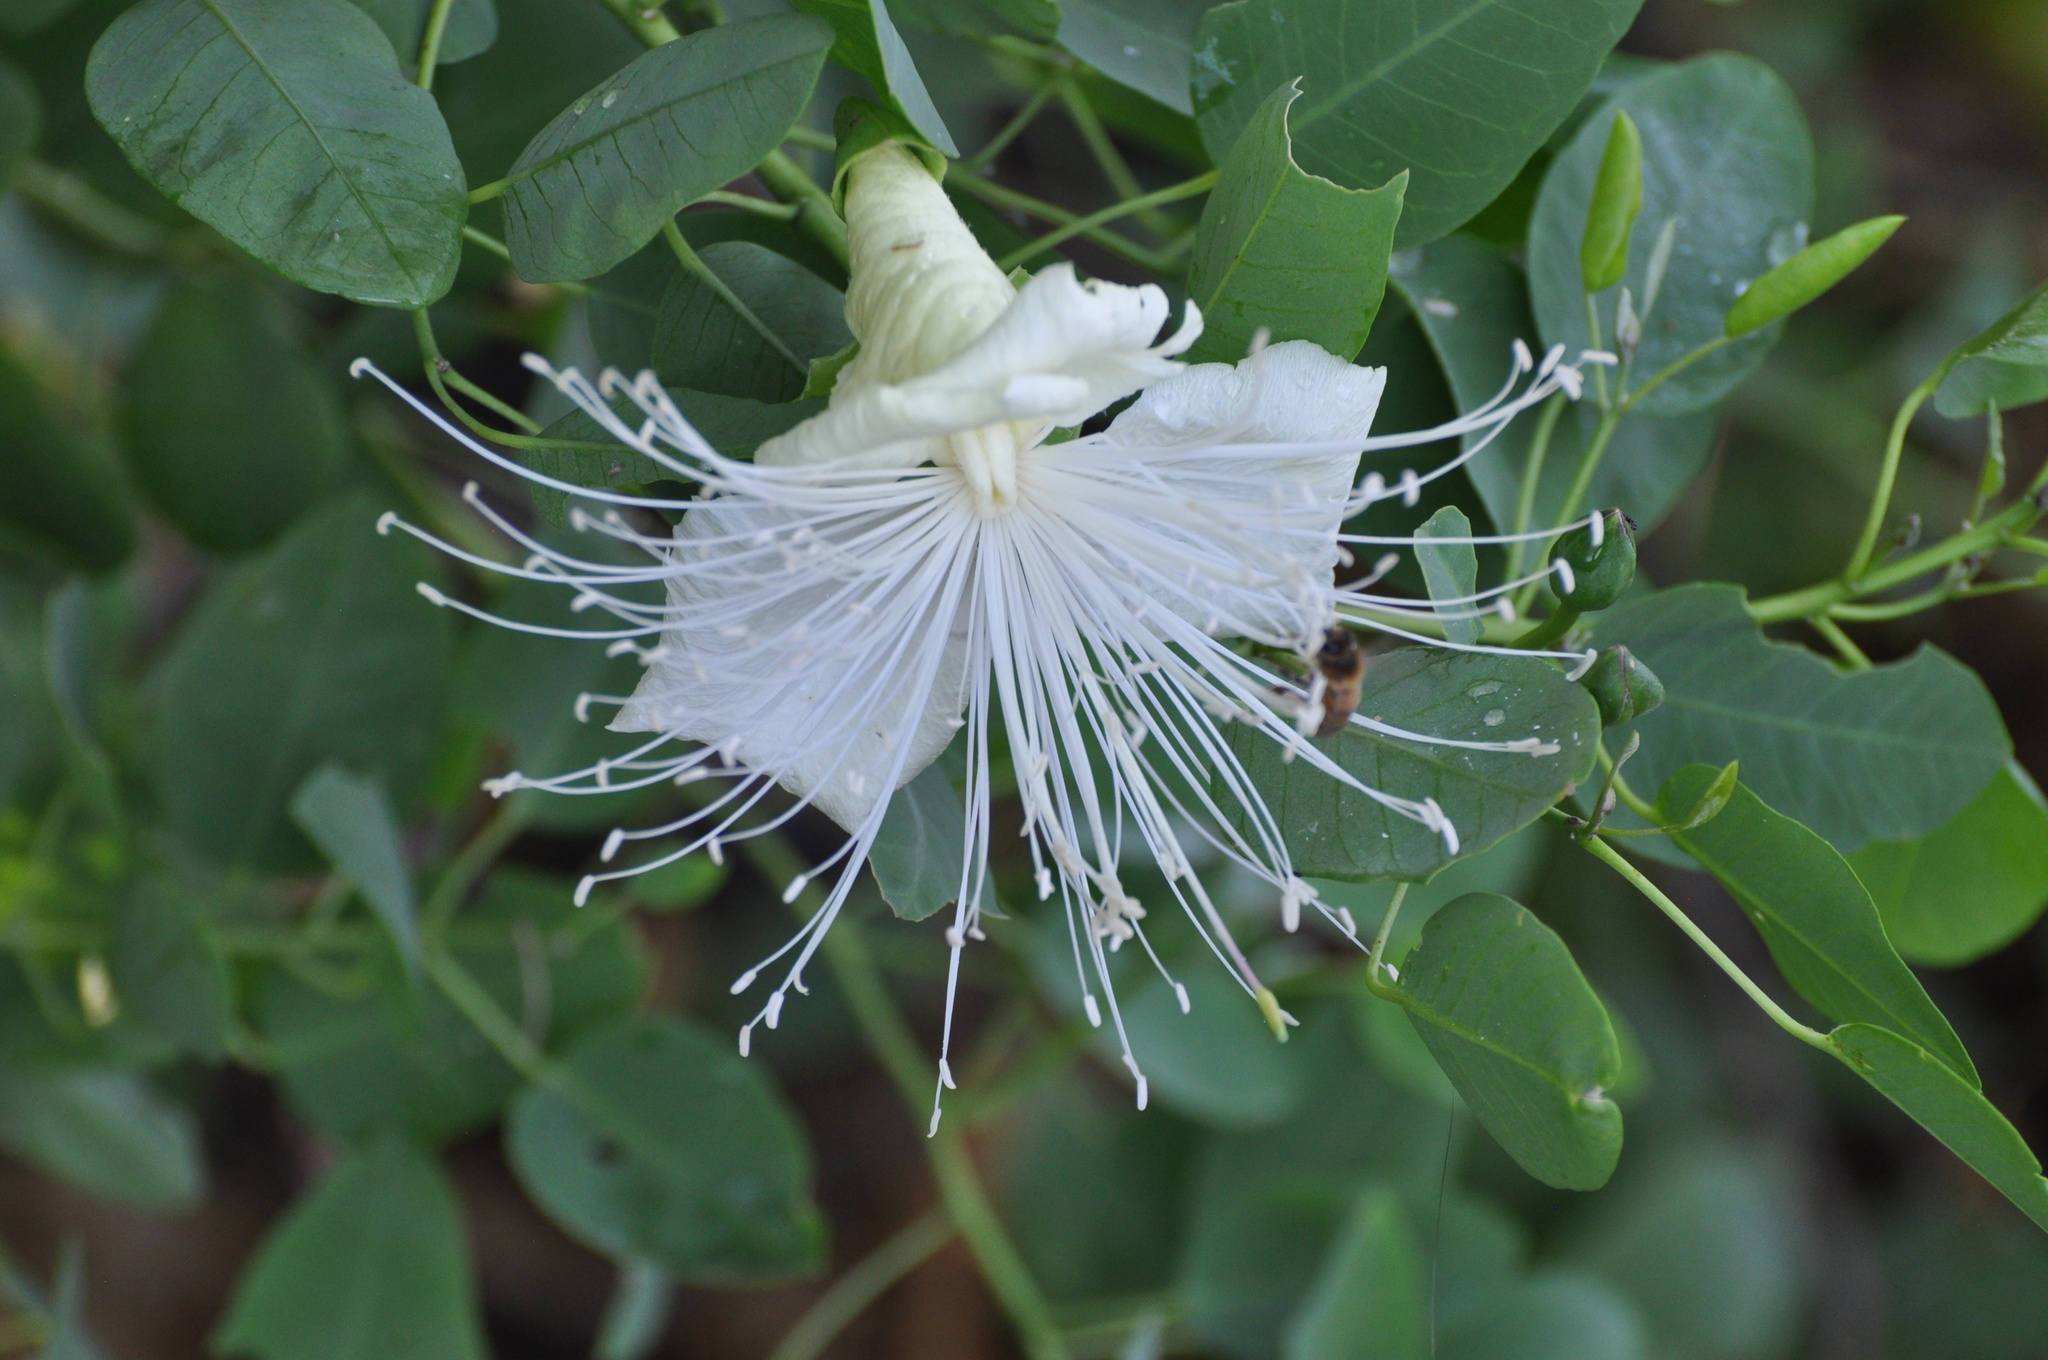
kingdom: Plantae
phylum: Tracheophyta
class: Magnoliopsida
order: Brassicales
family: Capparaceae
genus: Capparis
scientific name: Capparis spinosa
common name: Caper
